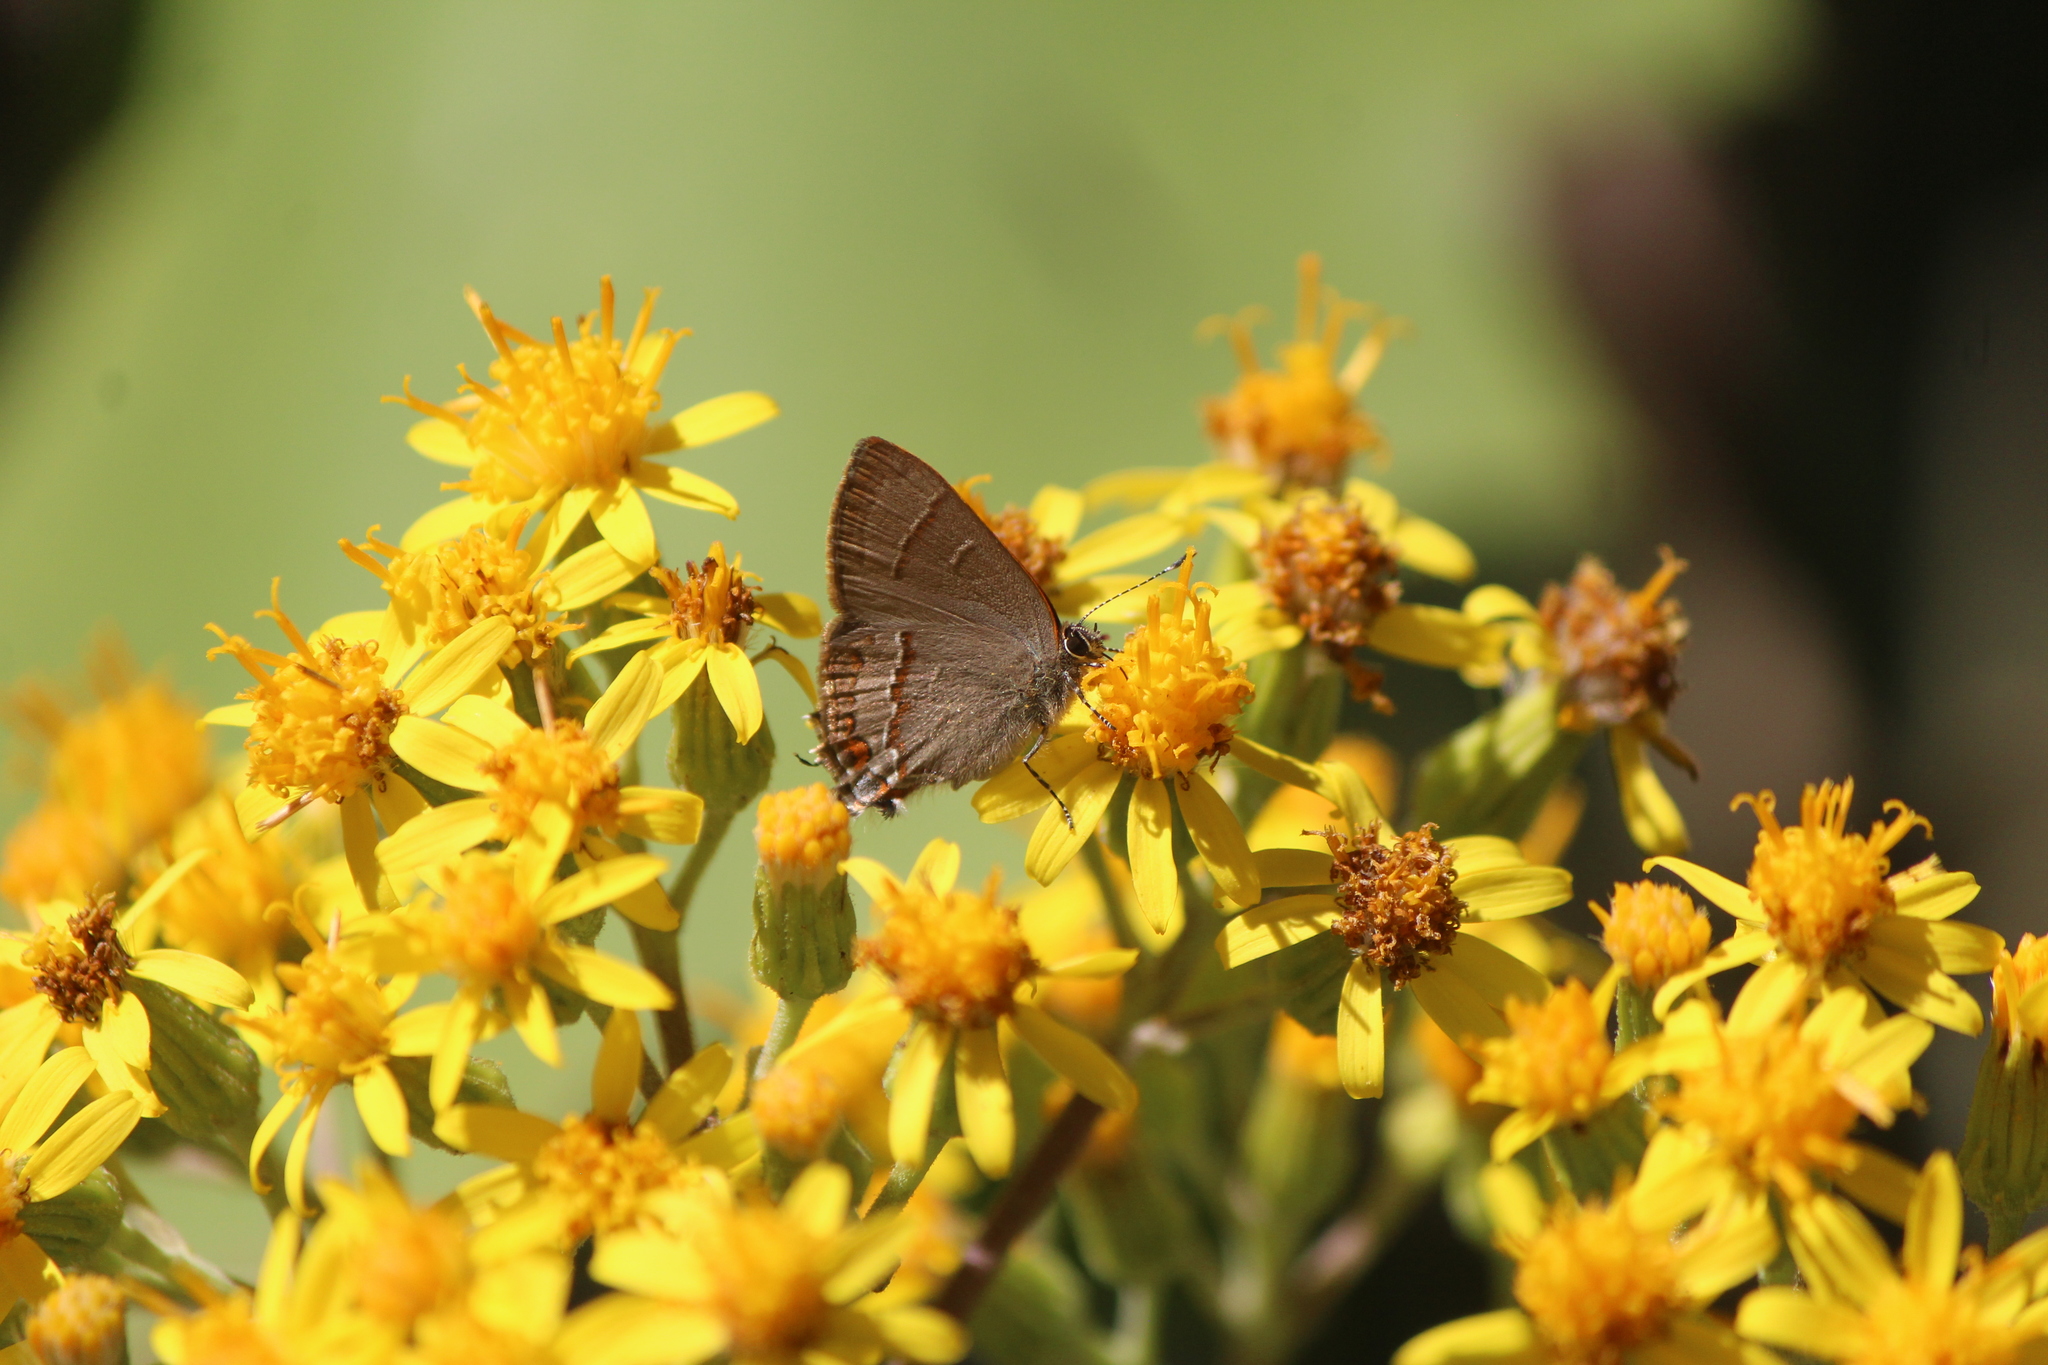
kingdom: Animalia
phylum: Arthropoda
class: Insecta
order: Lepidoptera
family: Lycaenidae
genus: Electrostrymon
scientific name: Electrostrymon
